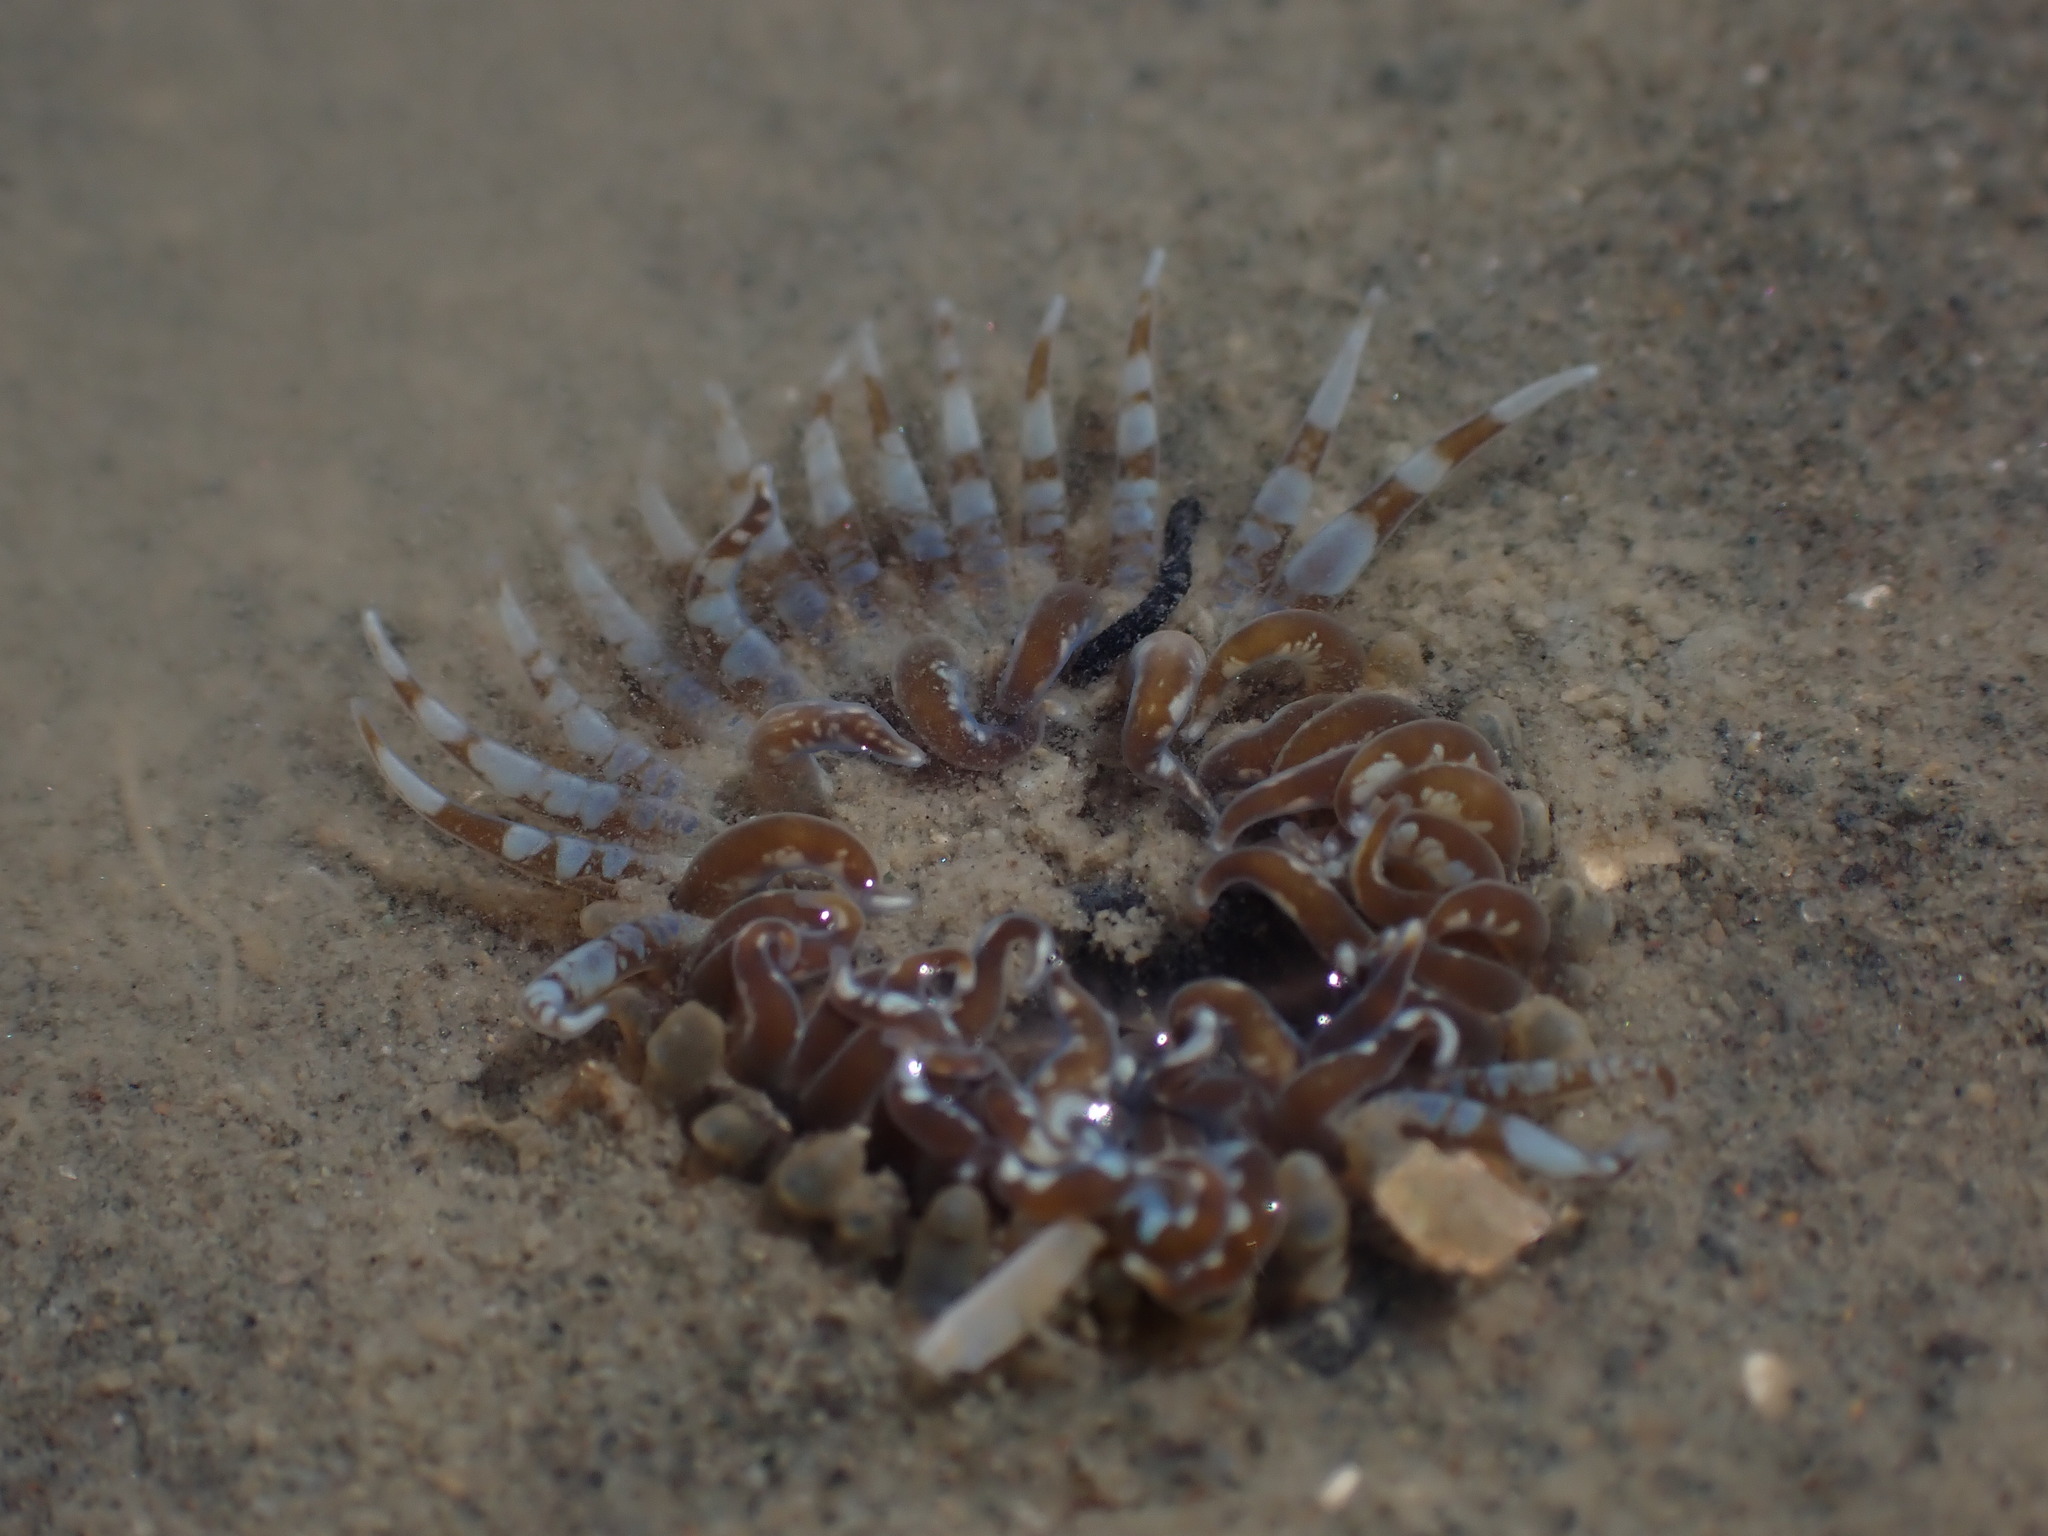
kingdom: Animalia
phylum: Cnidaria
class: Anthozoa
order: Actiniaria
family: Actiniidae
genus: Anthopleura
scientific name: Anthopleura hermaphroditica
